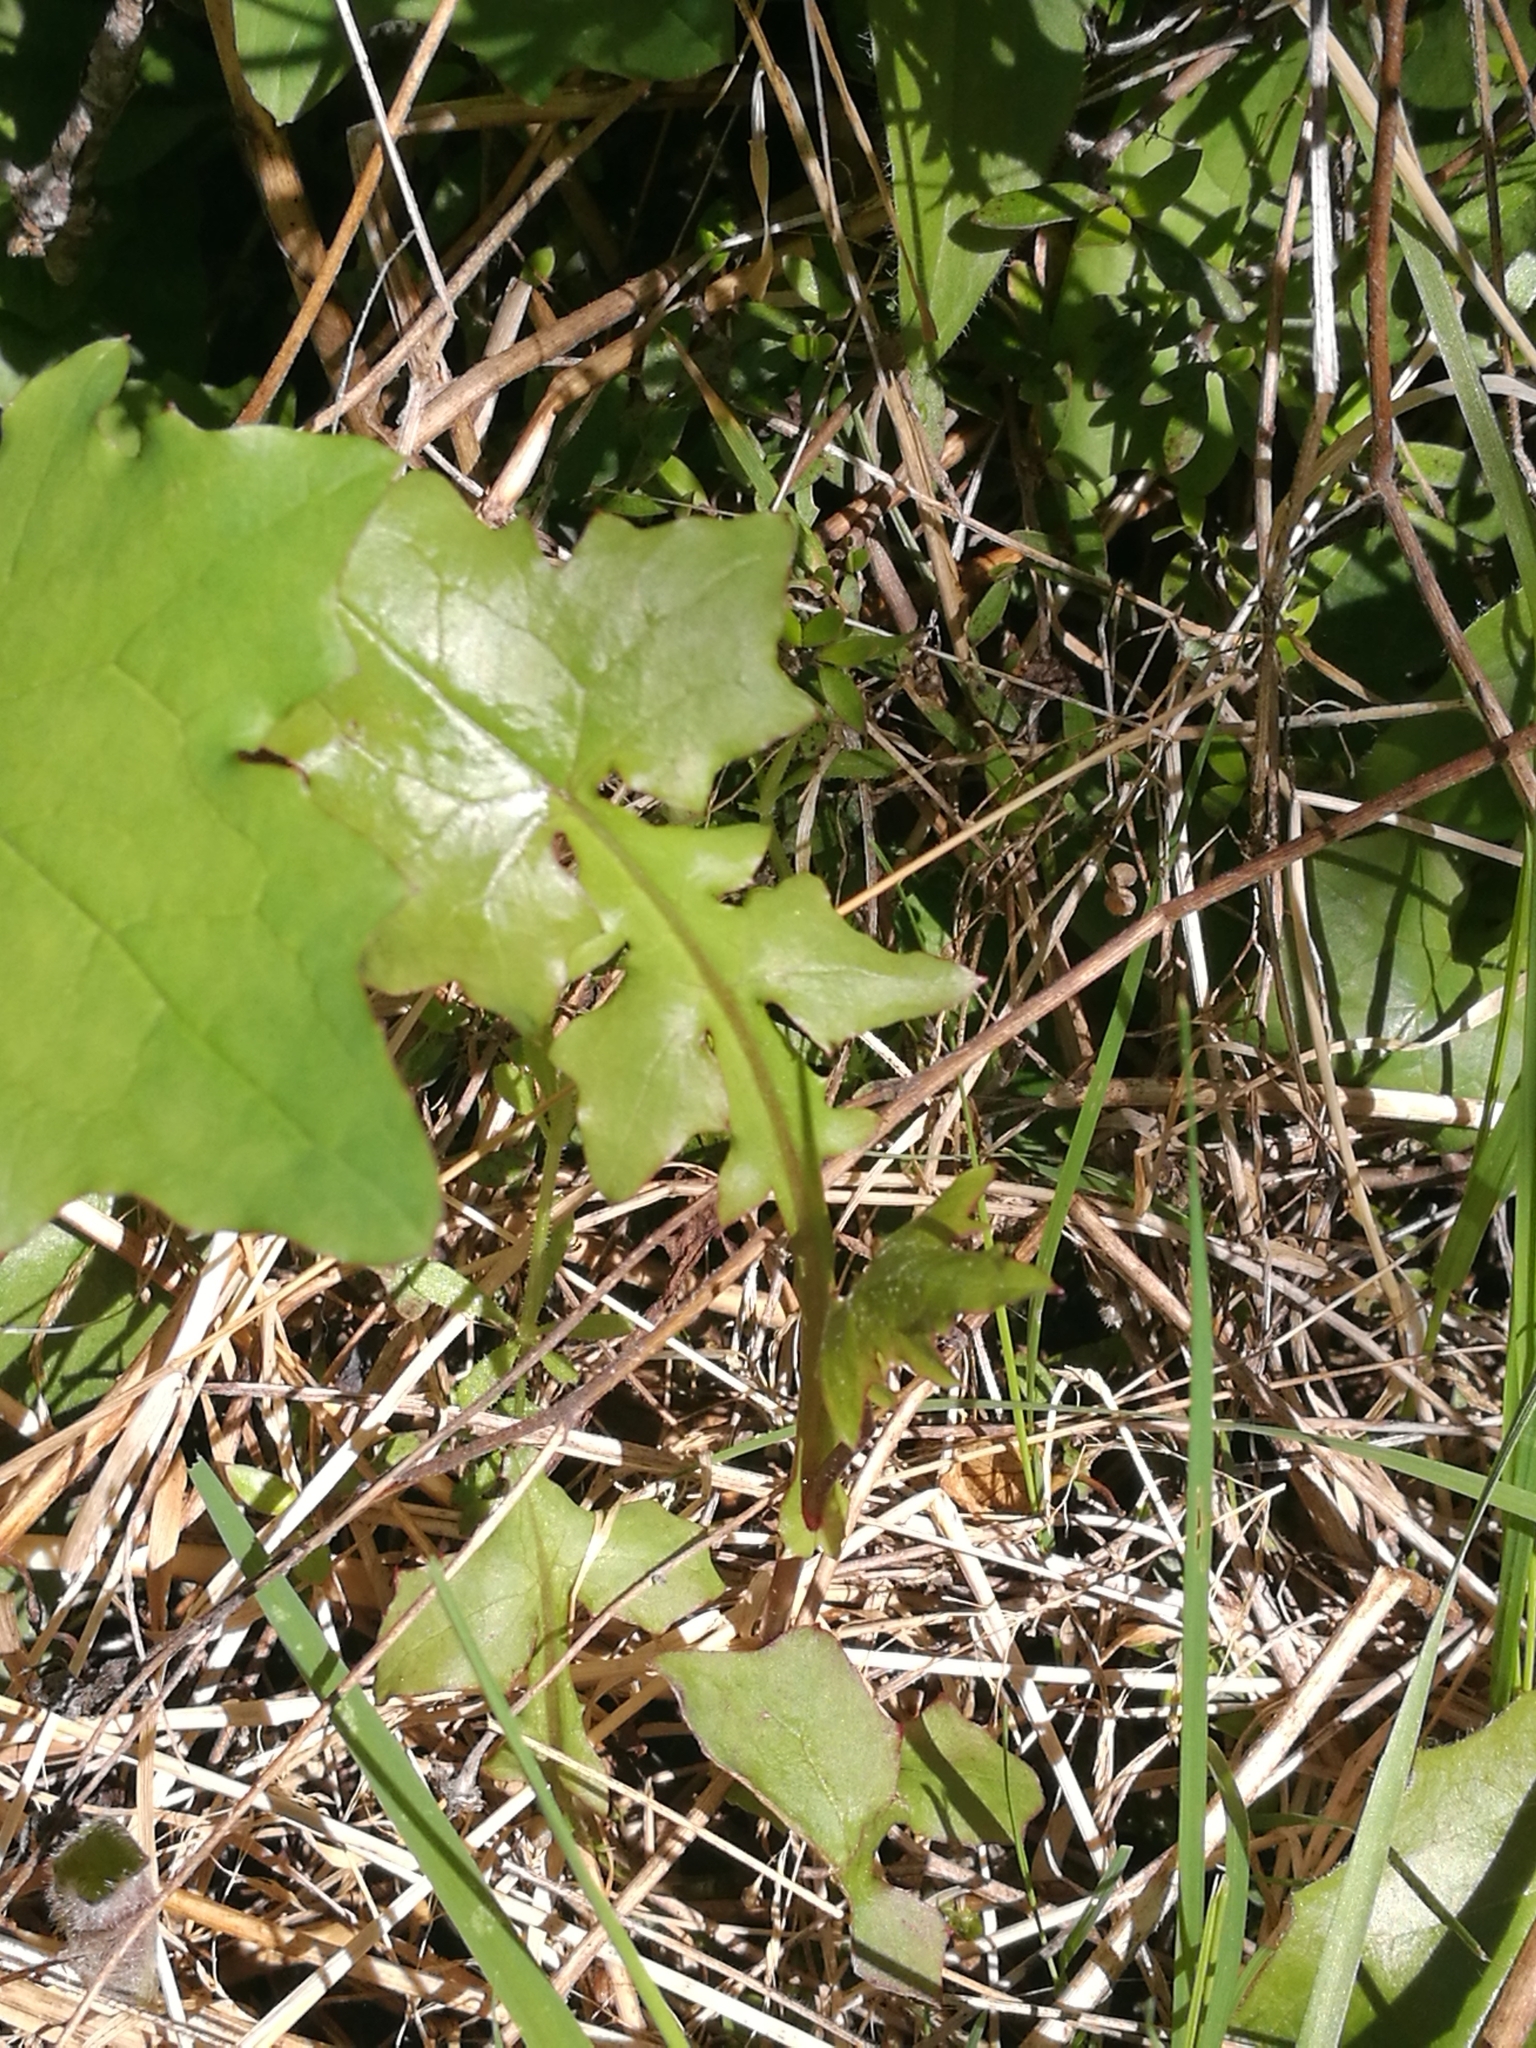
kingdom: Plantae
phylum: Tracheophyta
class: Magnoliopsida
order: Asterales
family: Asteraceae
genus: Mycelis
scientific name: Mycelis muralis
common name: Wall lettuce
